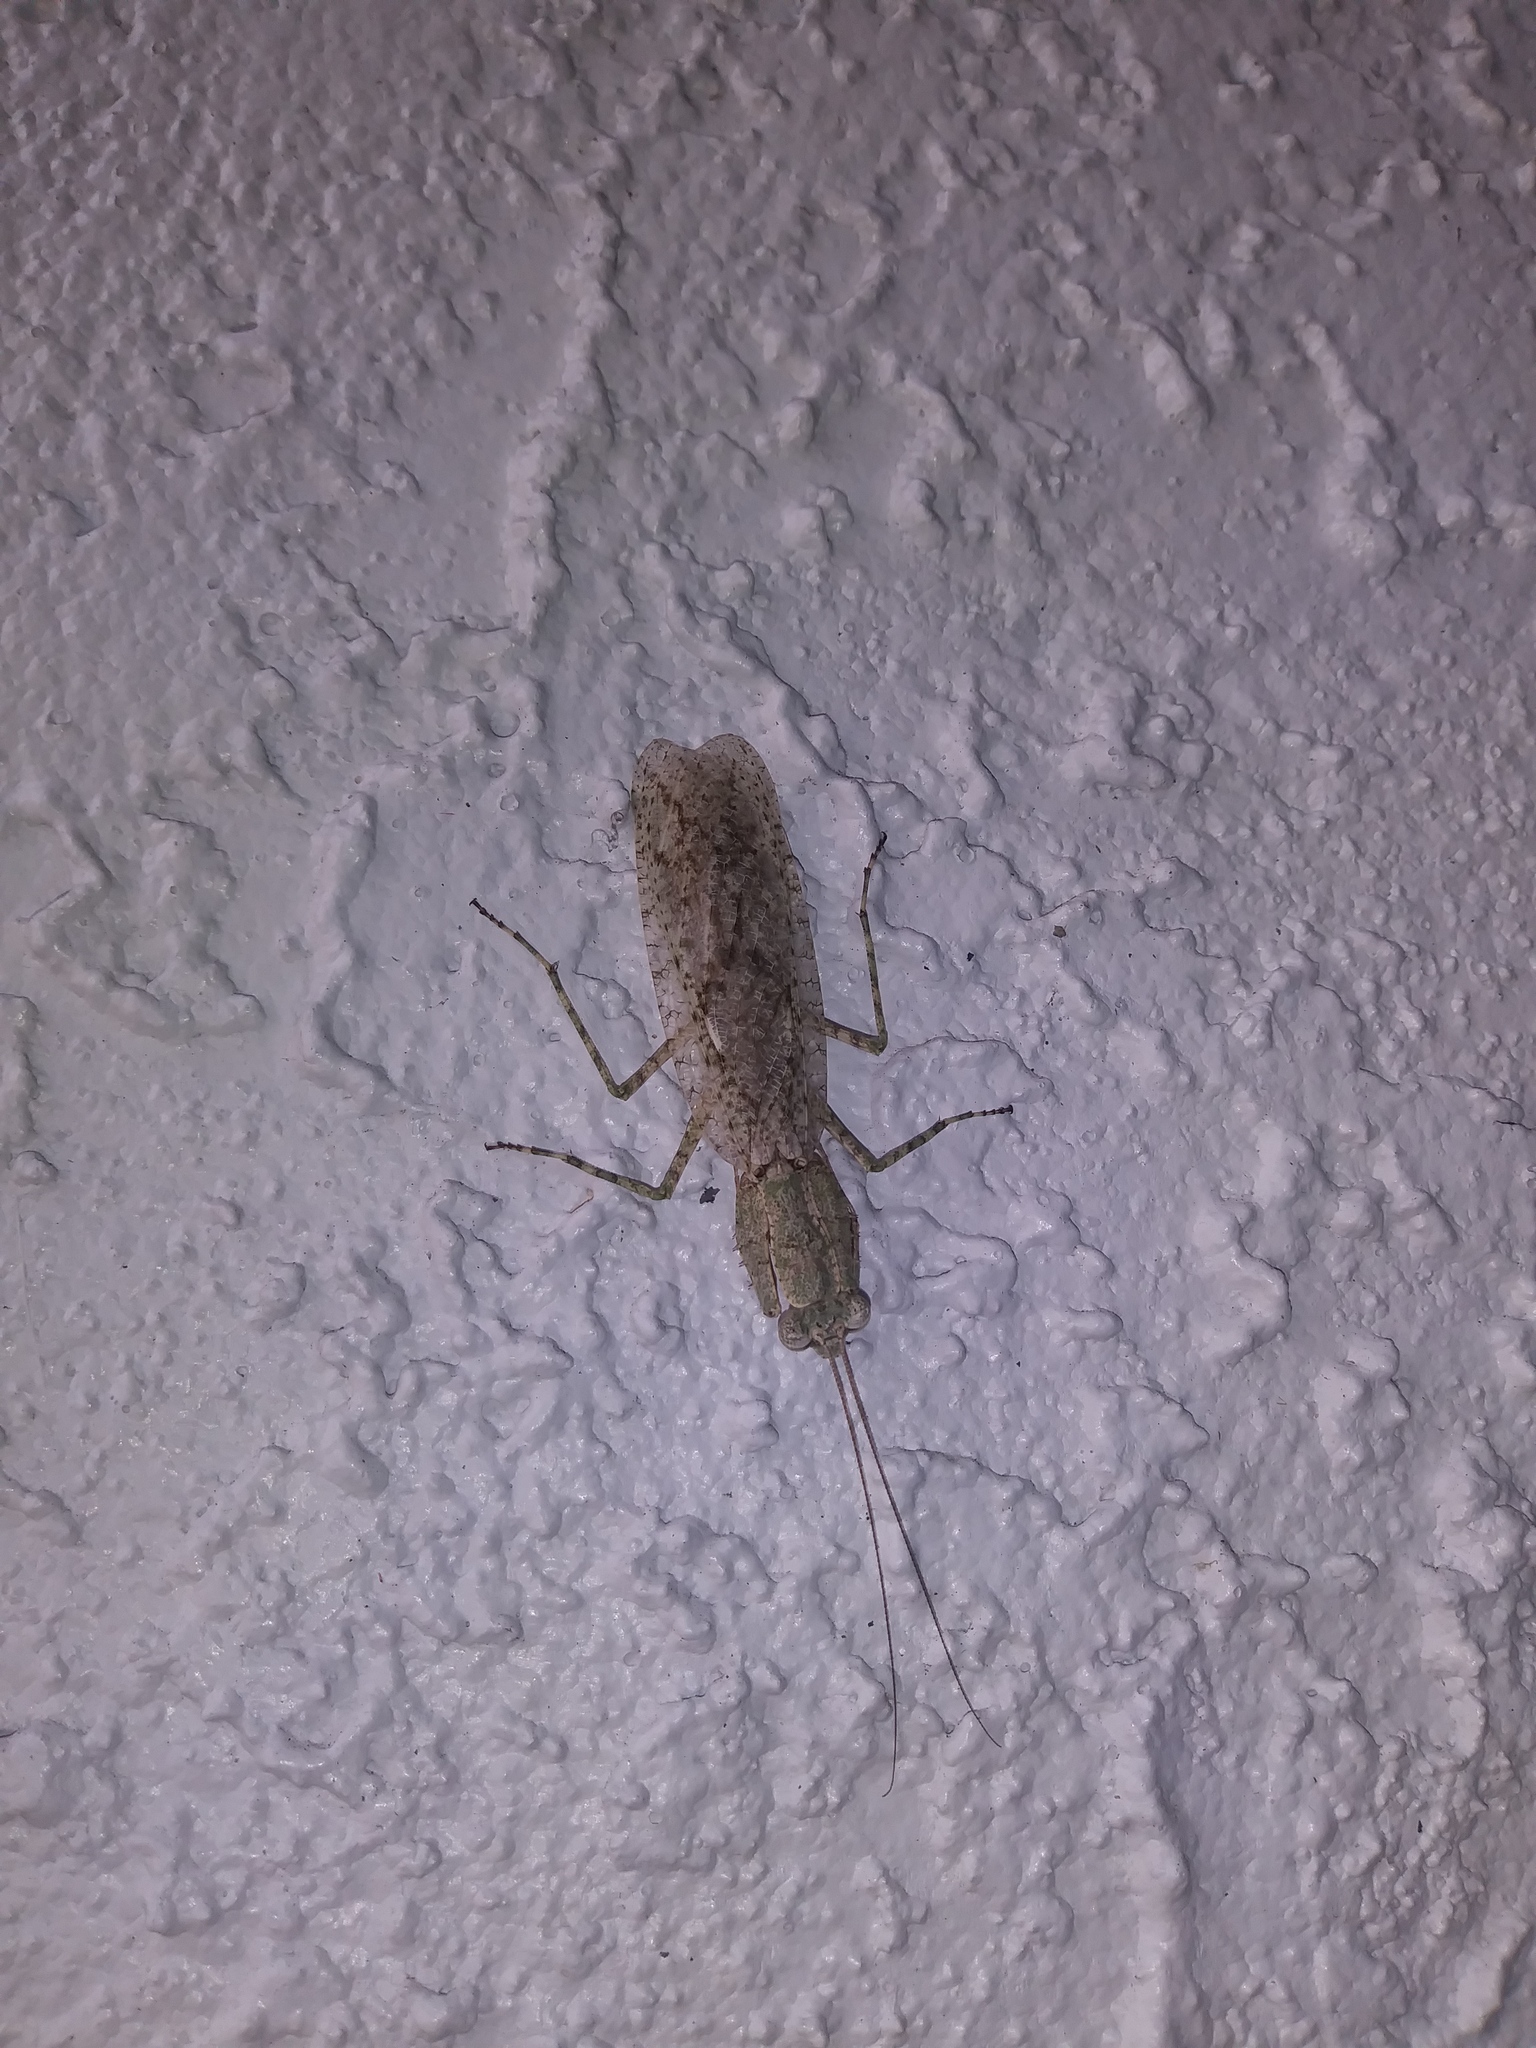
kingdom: Animalia
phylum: Arthropoda
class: Insecta
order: Mantodea
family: Epaphroditidae
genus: Gonatista
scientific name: Gonatista grisea
